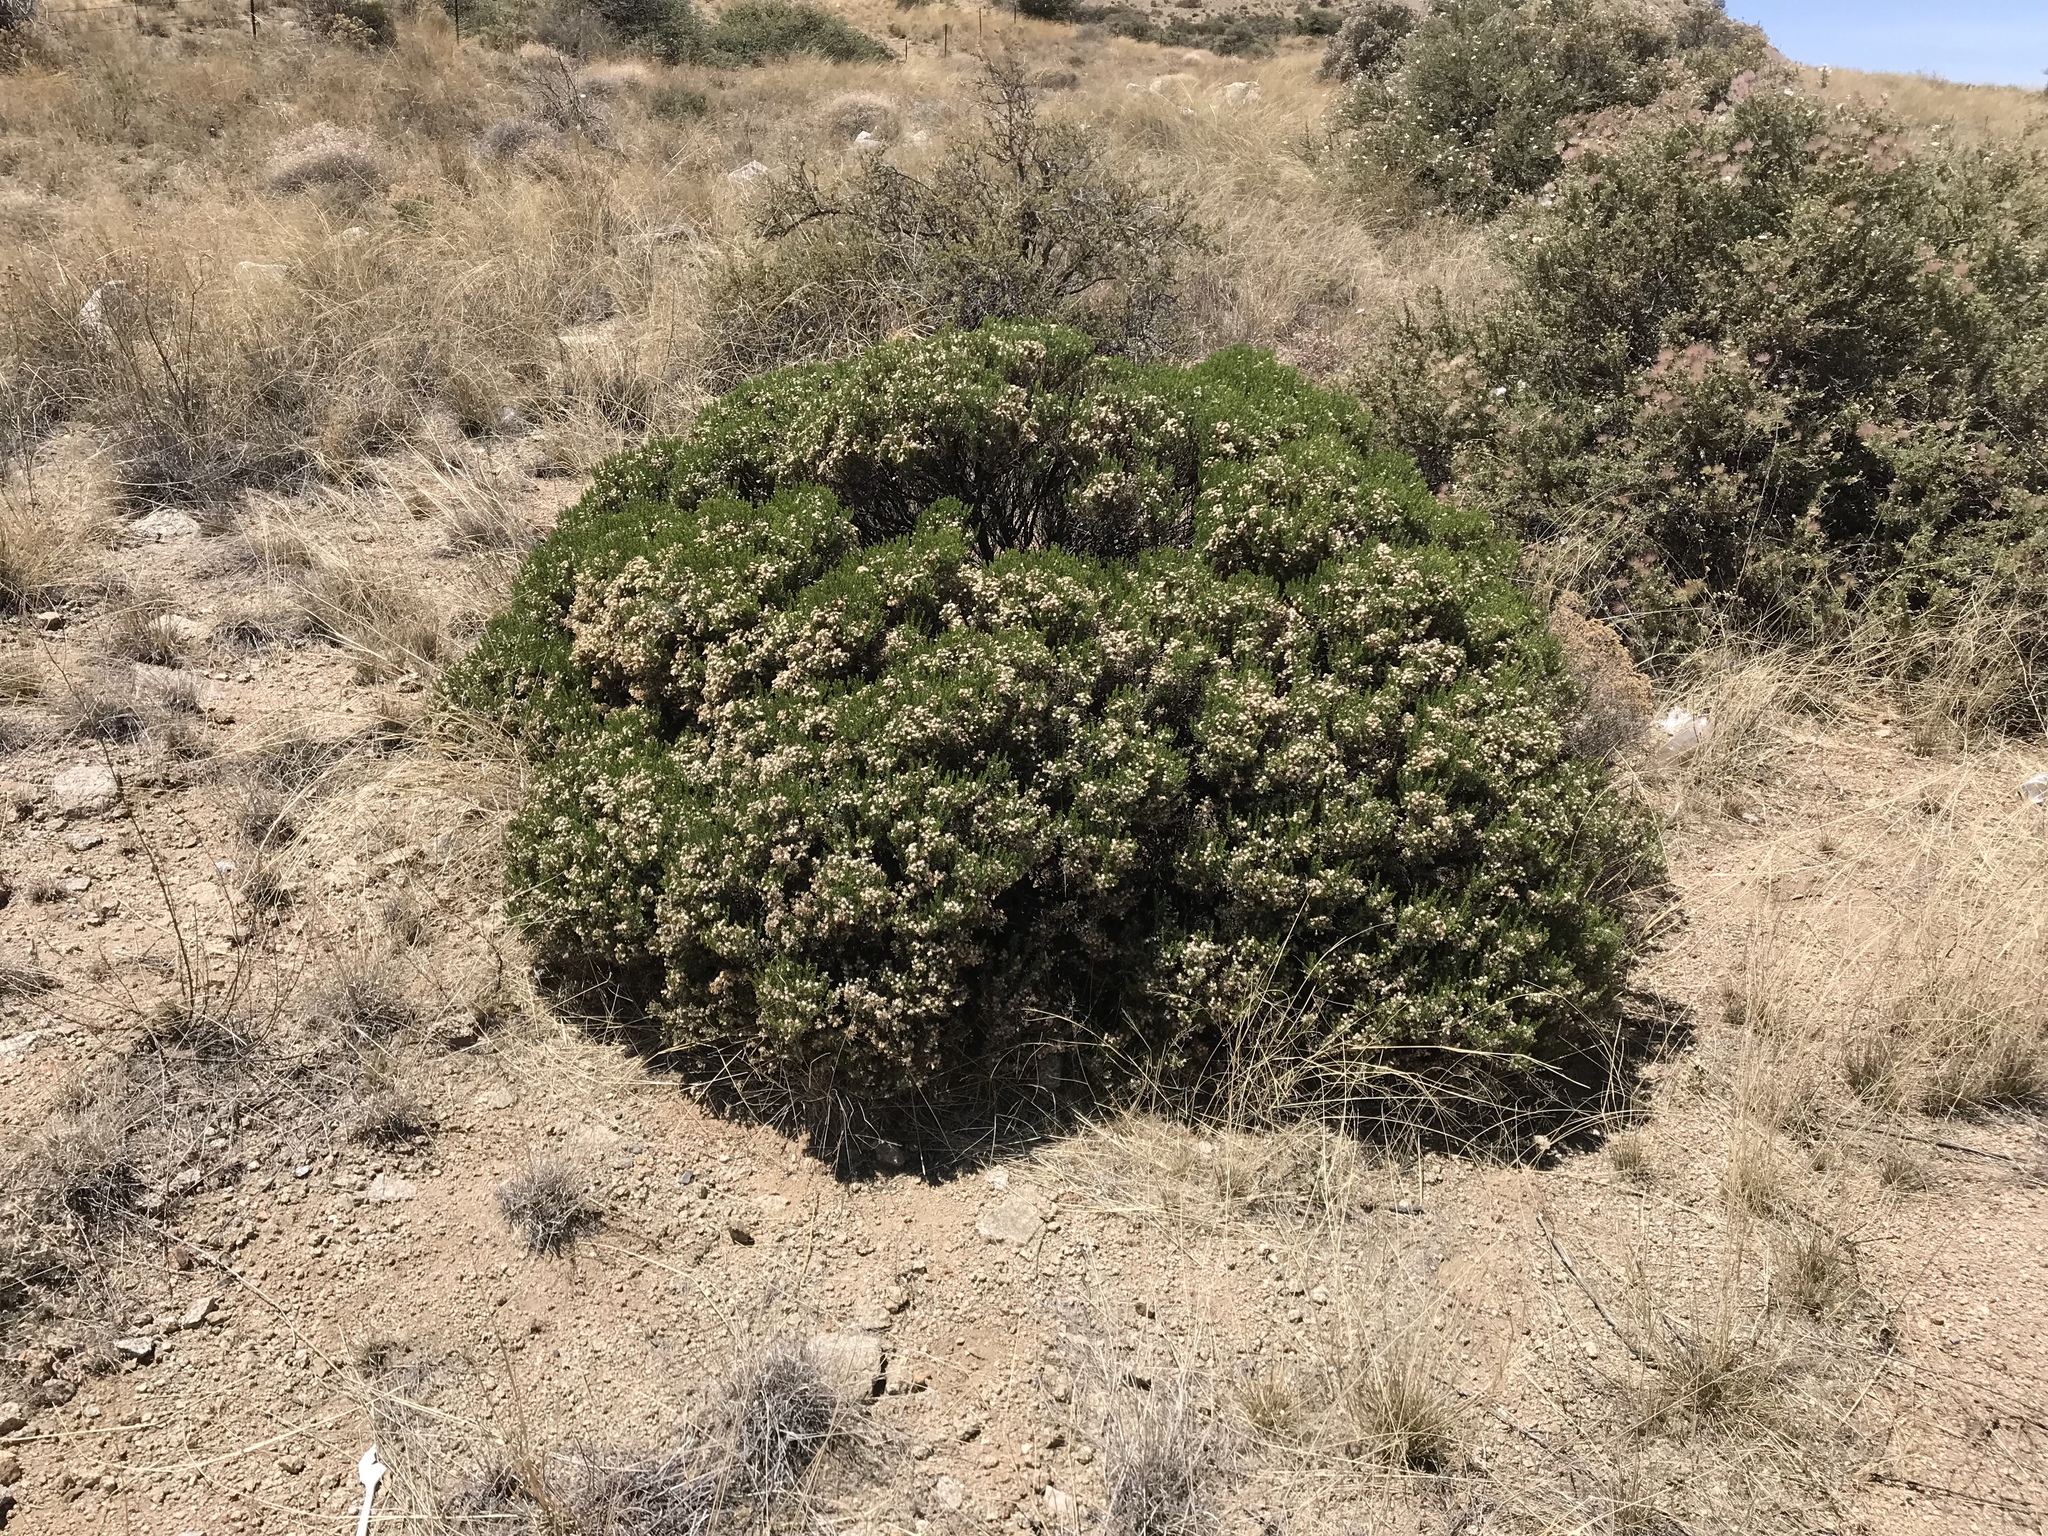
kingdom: Plantae
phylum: Tracheophyta
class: Magnoliopsida
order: Asterales
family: Asteraceae
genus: Ericameria
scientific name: Ericameria laricifolia
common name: Turpentine-bush
